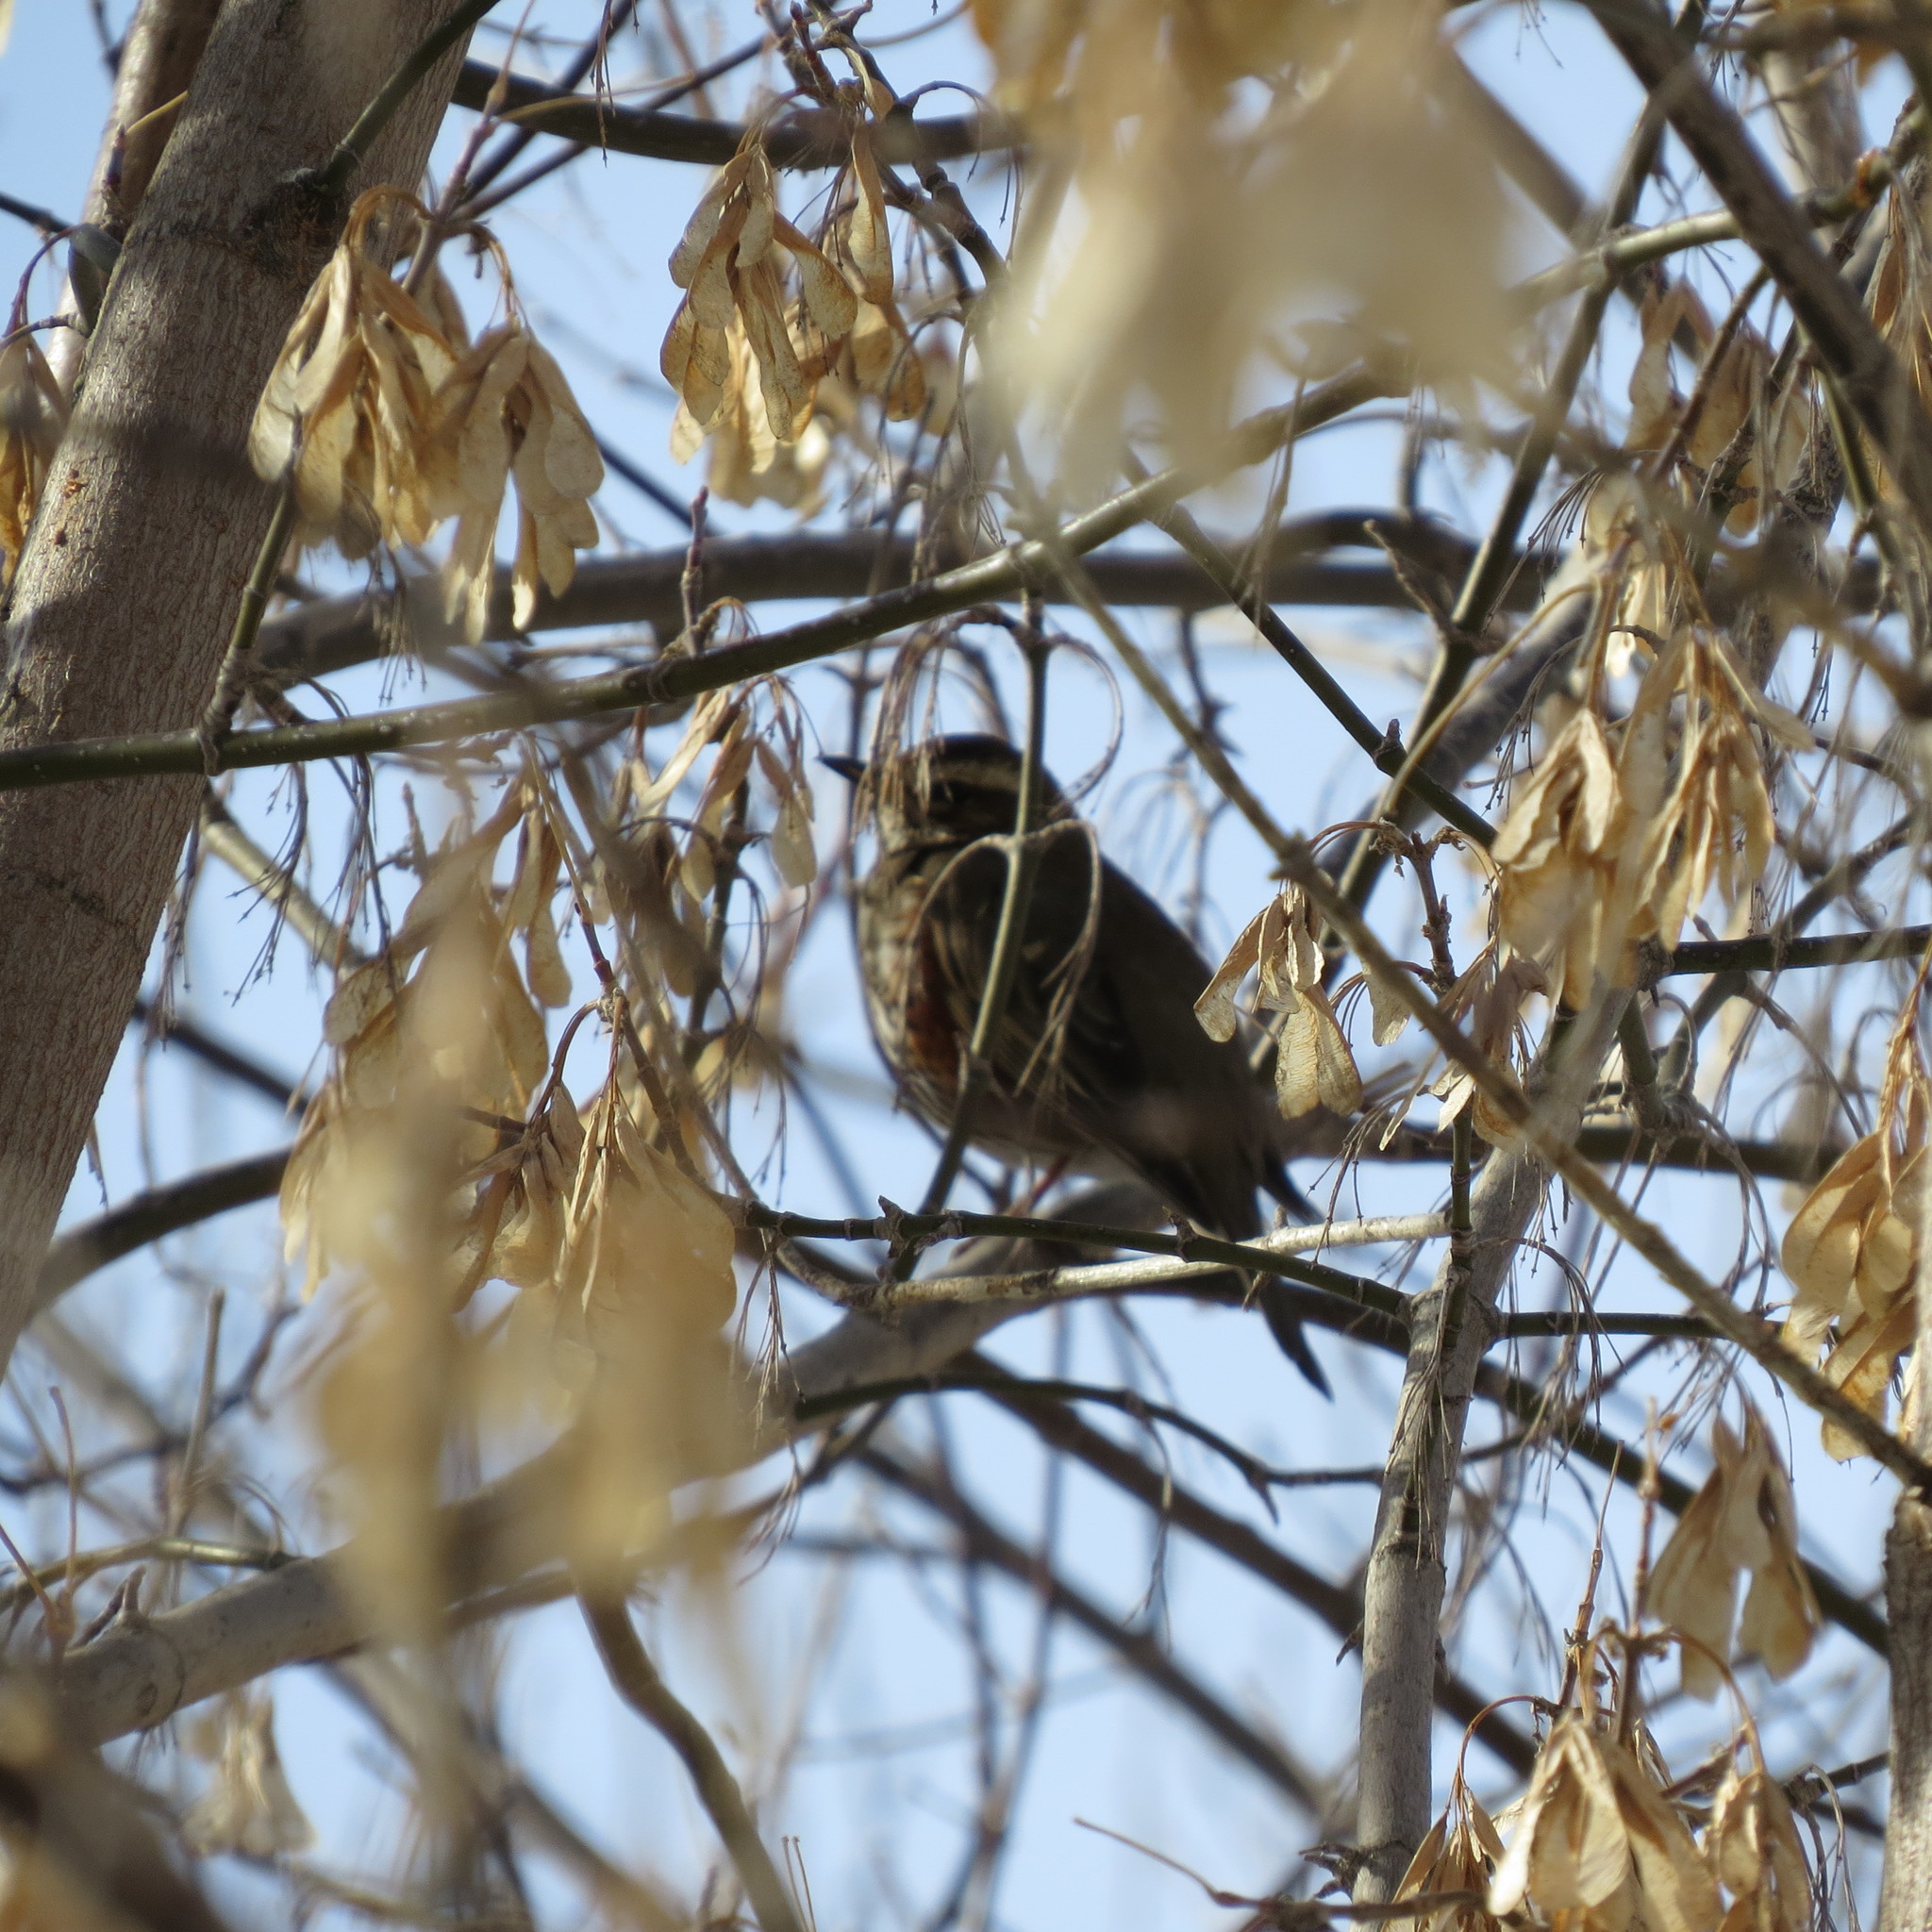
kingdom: Animalia
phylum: Chordata
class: Aves
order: Passeriformes
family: Turdidae
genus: Turdus
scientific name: Turdus iliacus
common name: Redwing
